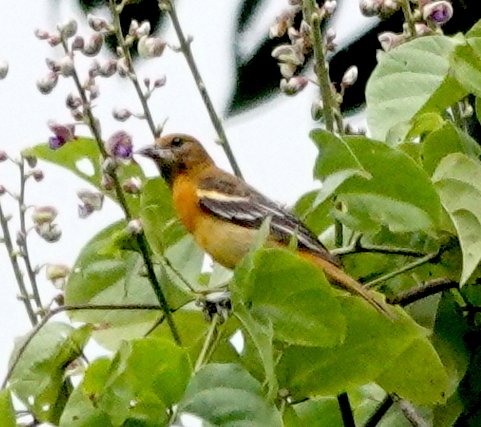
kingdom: Animalia
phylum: Chordata
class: Aves
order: Passeriformes
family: Icteridae
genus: Icterus
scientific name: Icterus galbula
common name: Baltimore oriole
